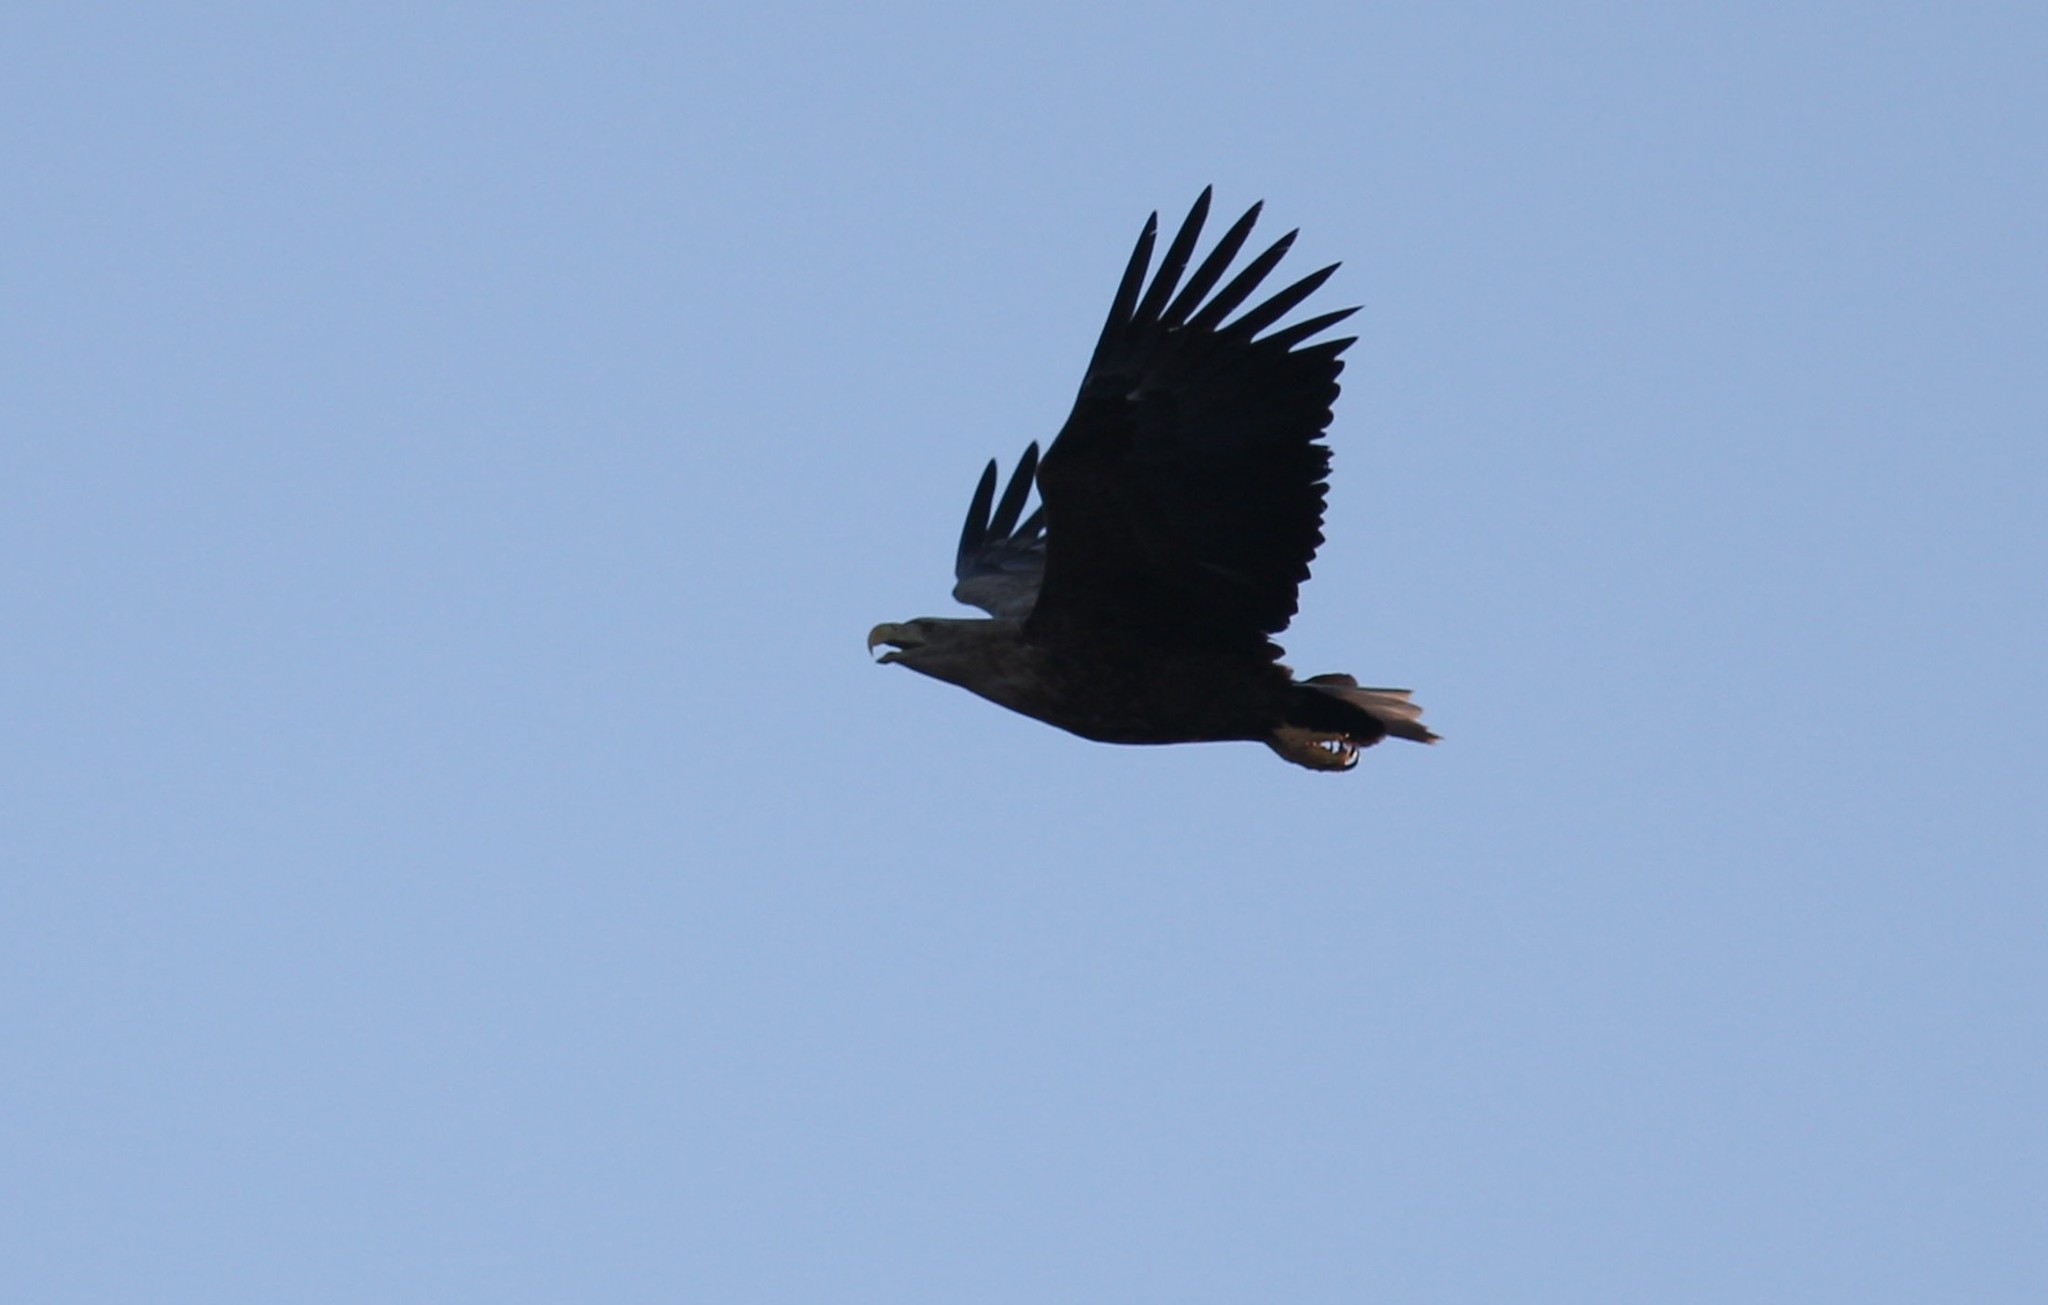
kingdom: Animalia
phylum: Chordata
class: Aves
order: Accipitriformes
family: Accipitridae
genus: Haliaeetus
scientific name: Haliaeetus albicilla
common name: White-tailed eagle
